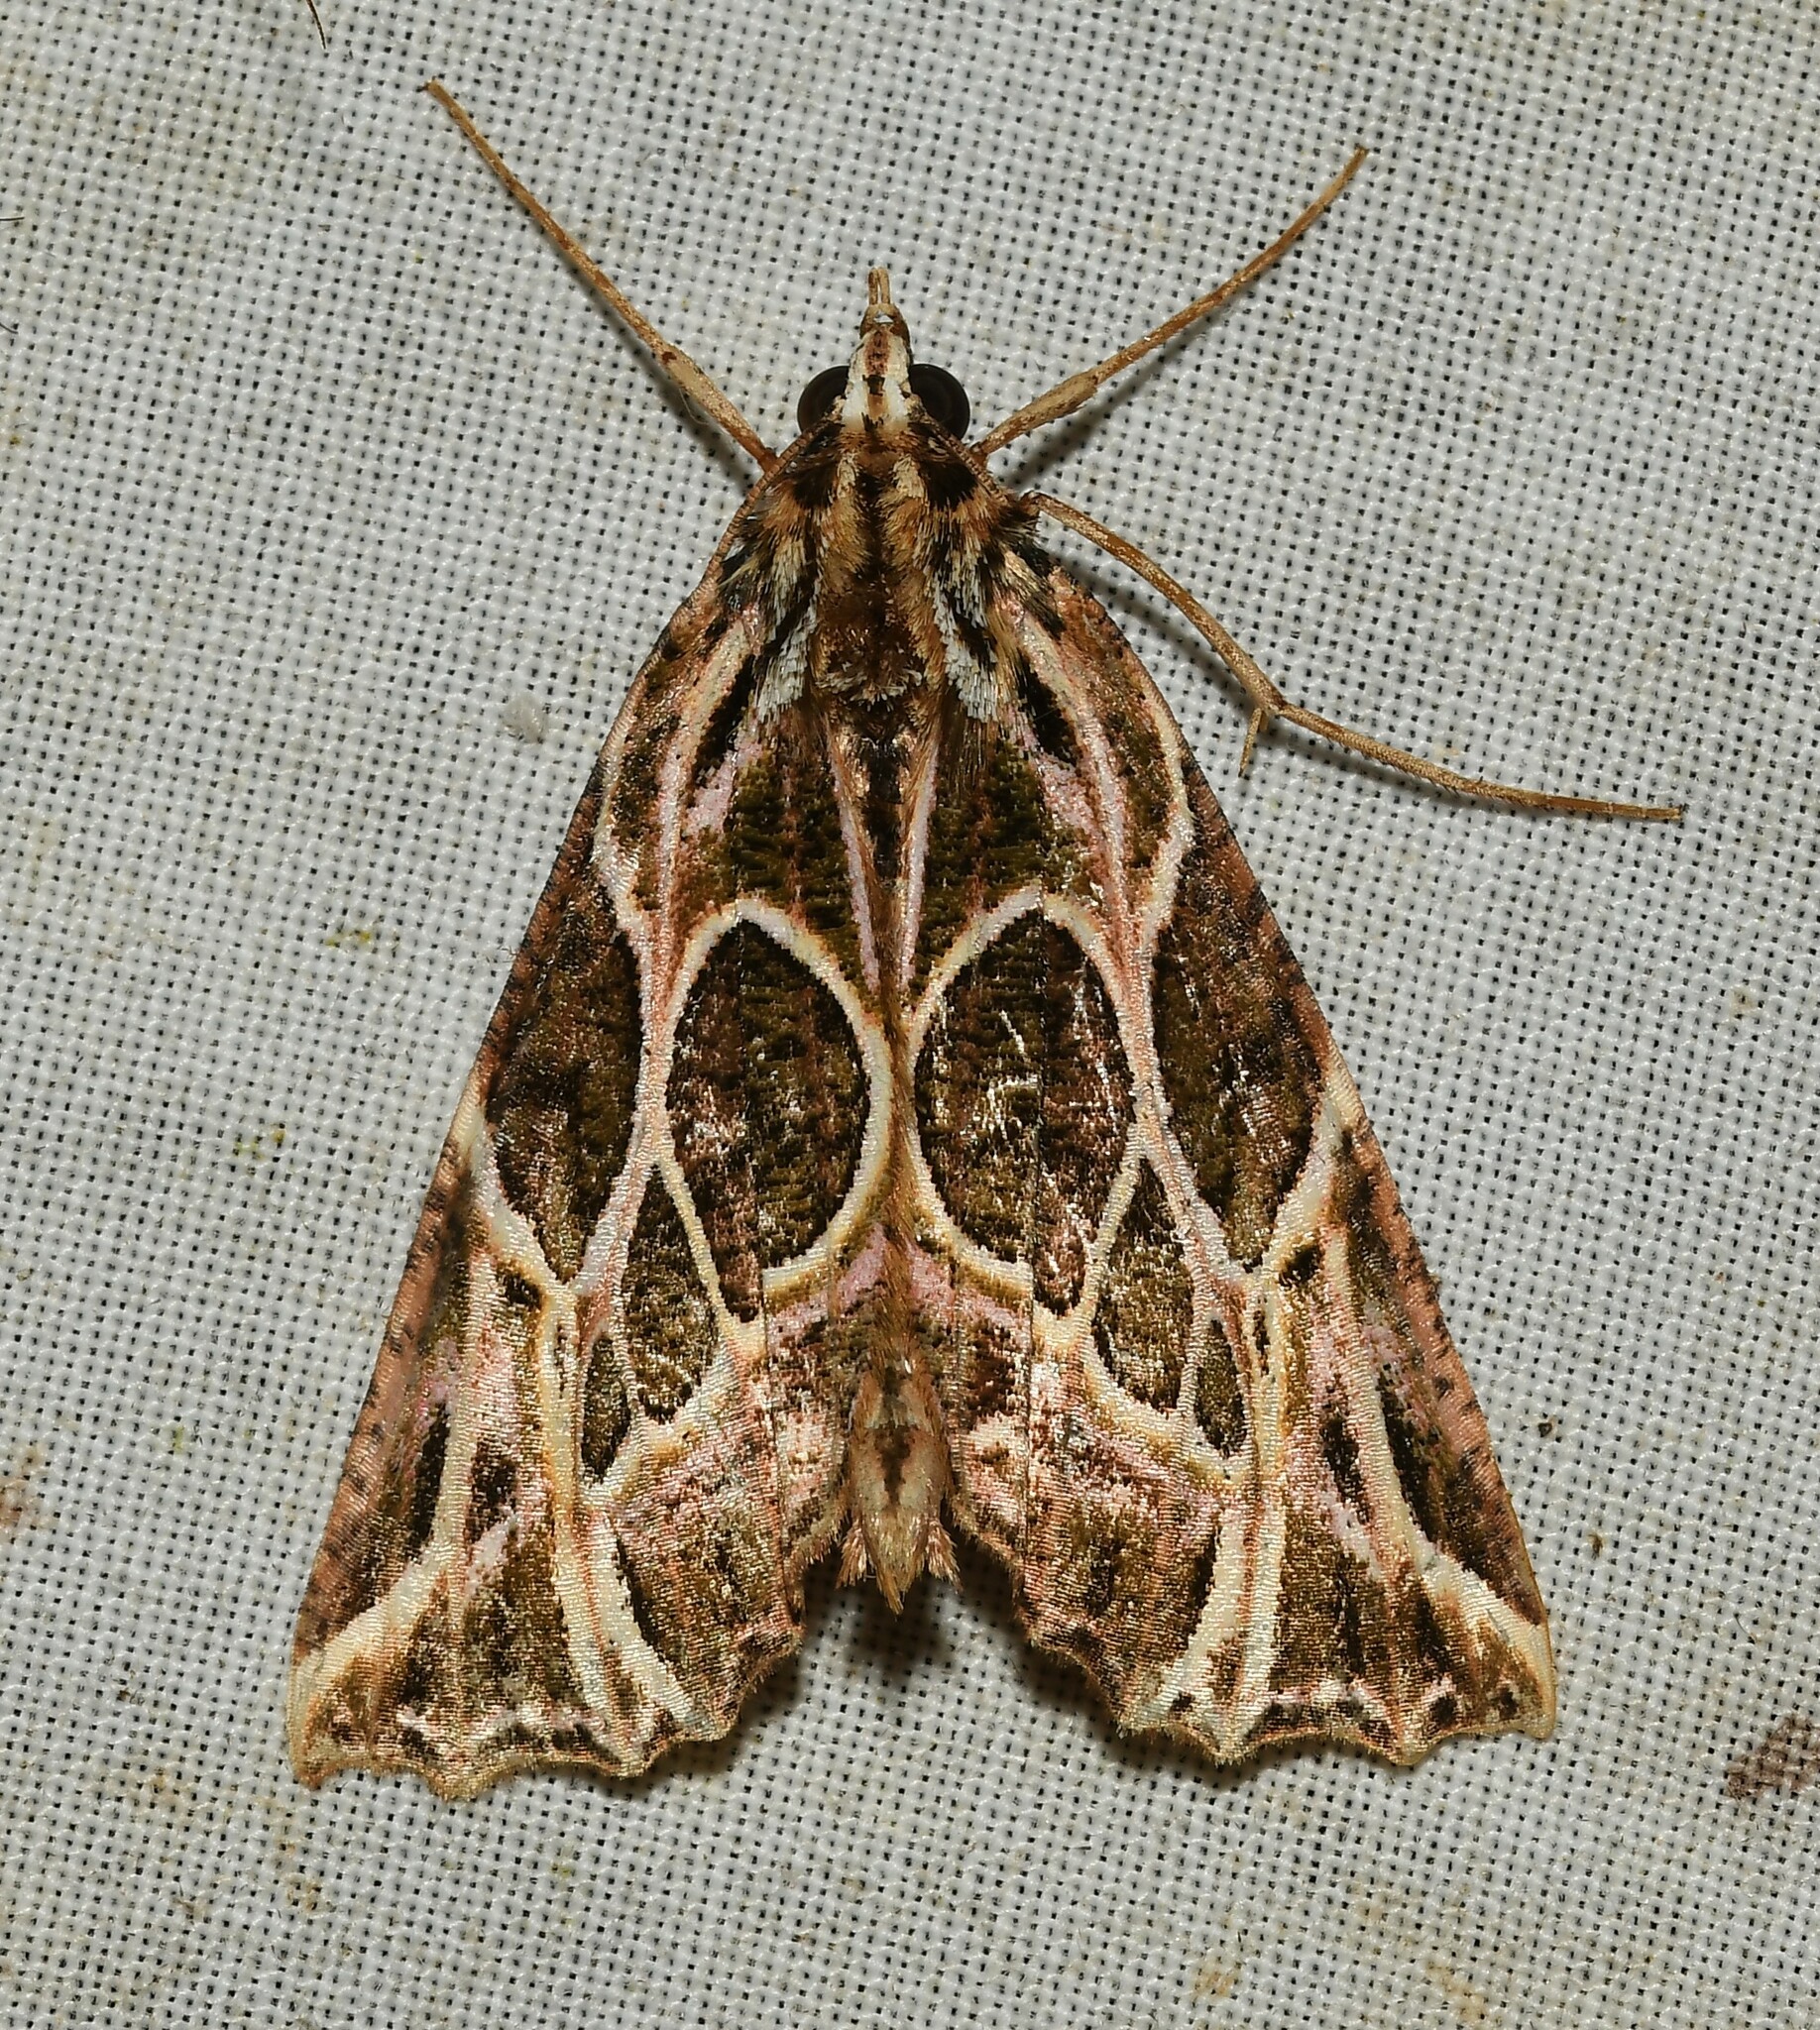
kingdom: Animalia
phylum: Arthropoda
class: Insecta
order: Lepidoptera
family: Geometridae
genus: Charca
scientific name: Charca
